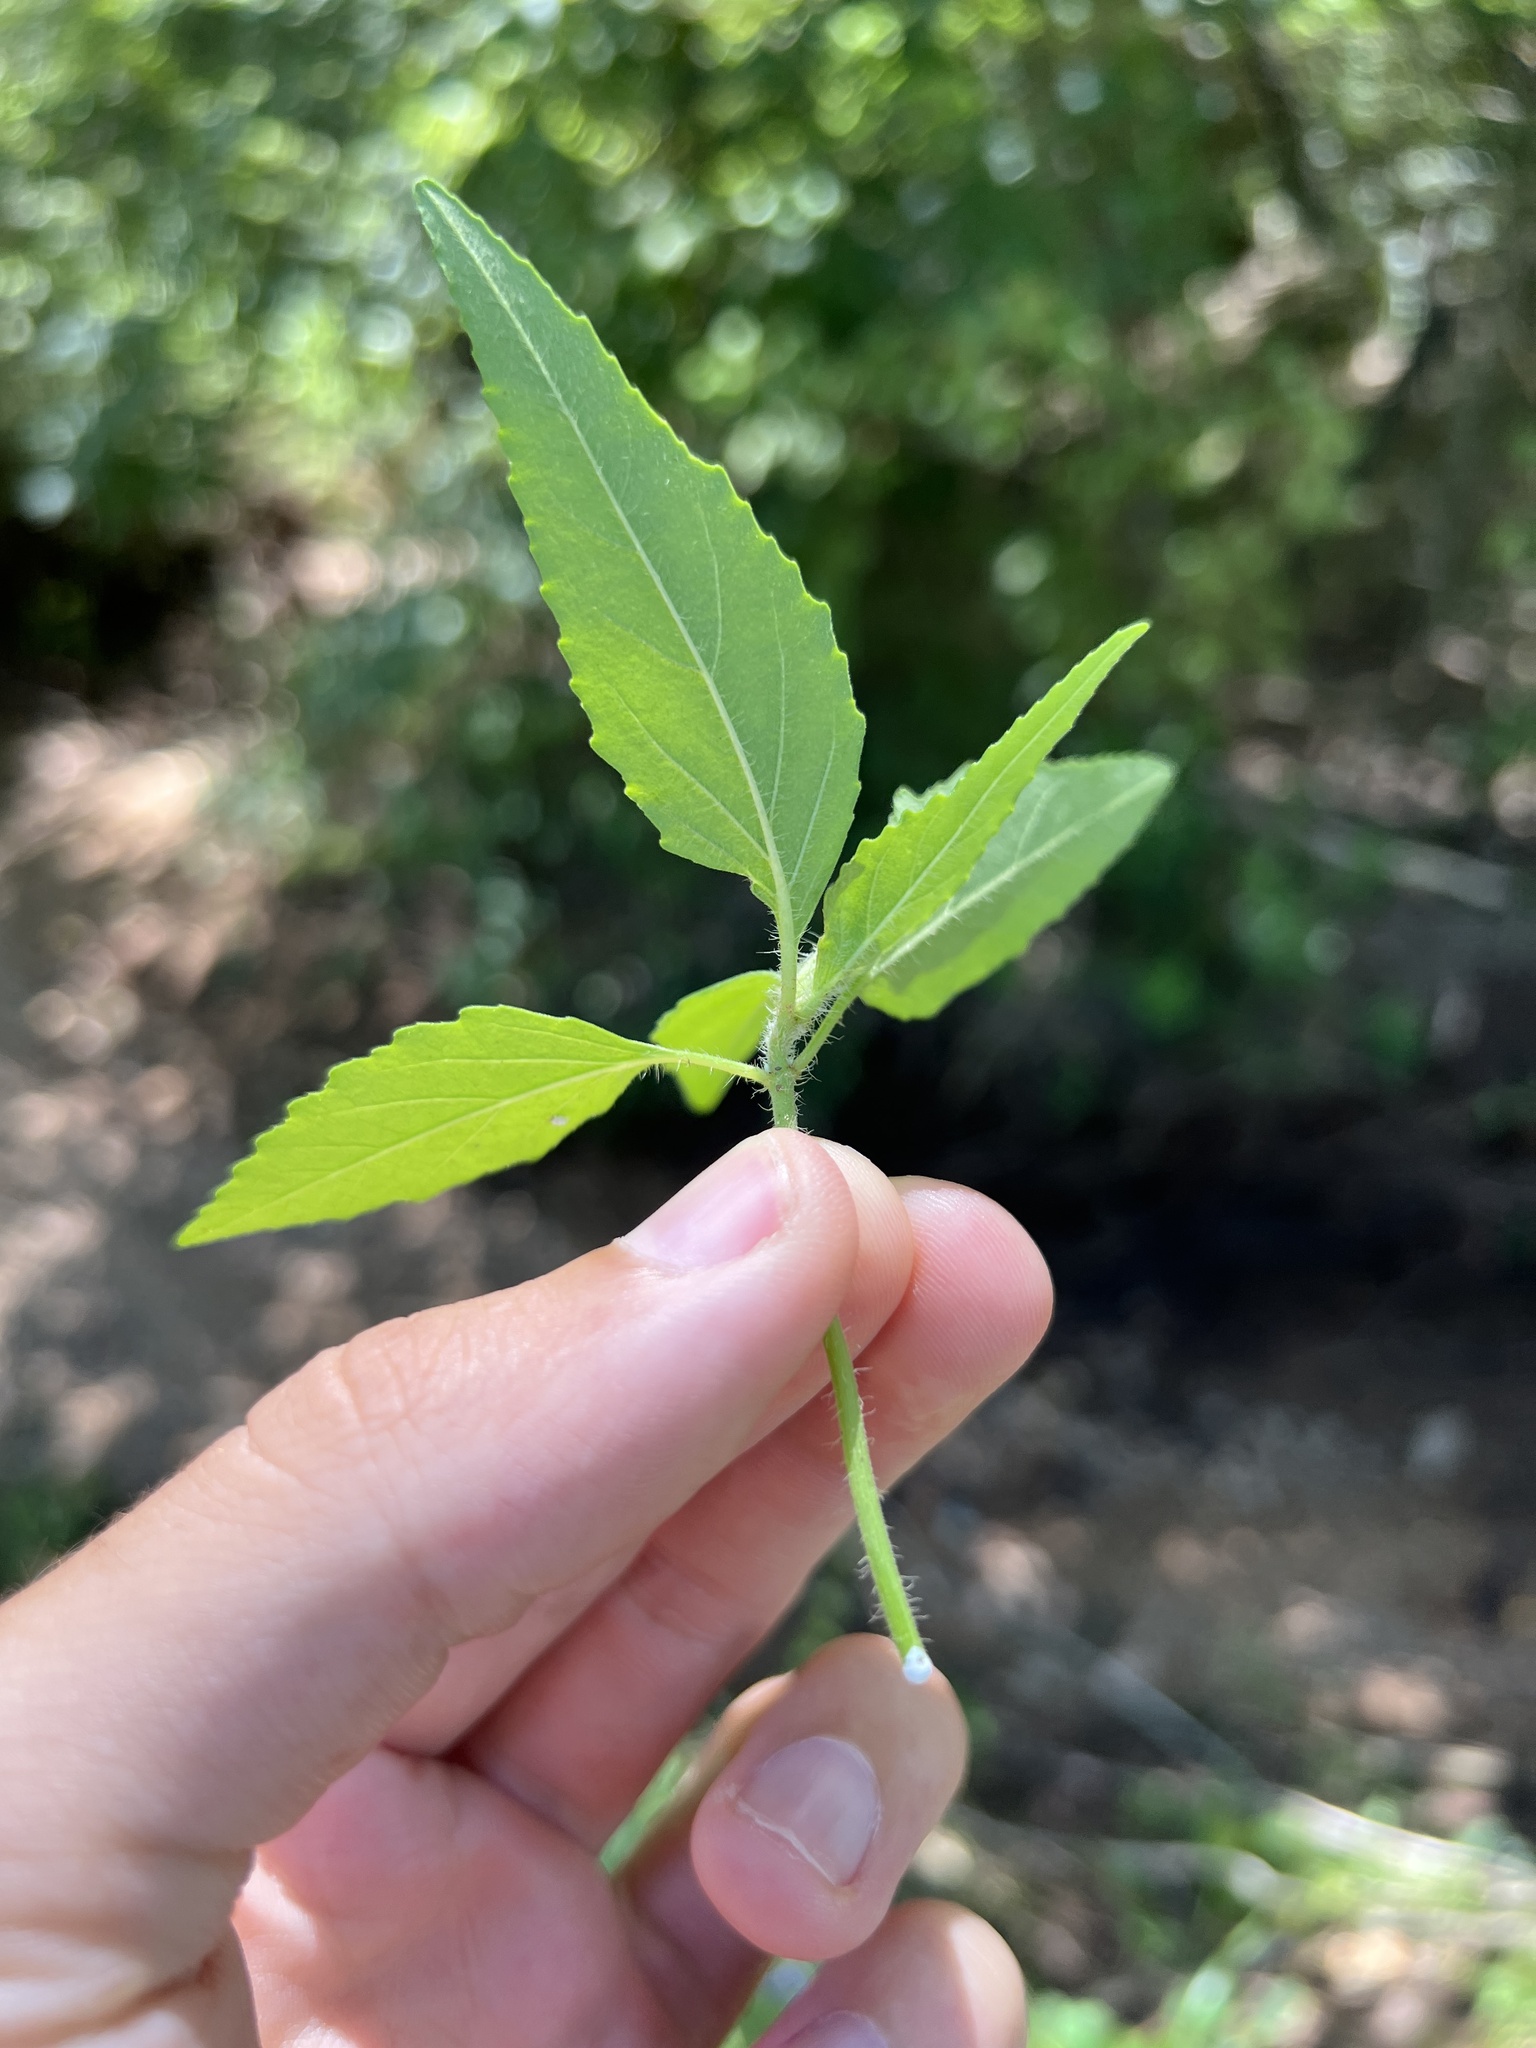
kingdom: Plantae
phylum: Tracheophyta
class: Magnoliopsida
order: Malpighiales
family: Euphorbiaceae
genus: Euphorbia
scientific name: Euphorbia dentata
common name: Dentate spurge
